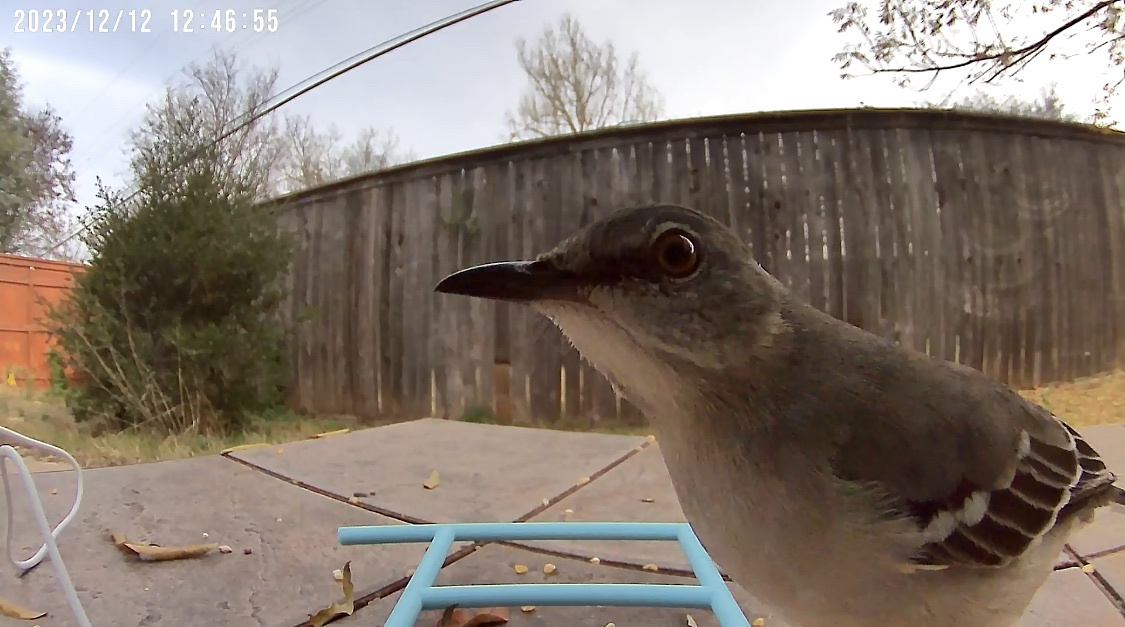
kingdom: Animalia
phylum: Chordata
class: Aves
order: Passeriformes
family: Mimidae
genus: Mimus
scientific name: Mimus polyglottos
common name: Northern mockingbird
